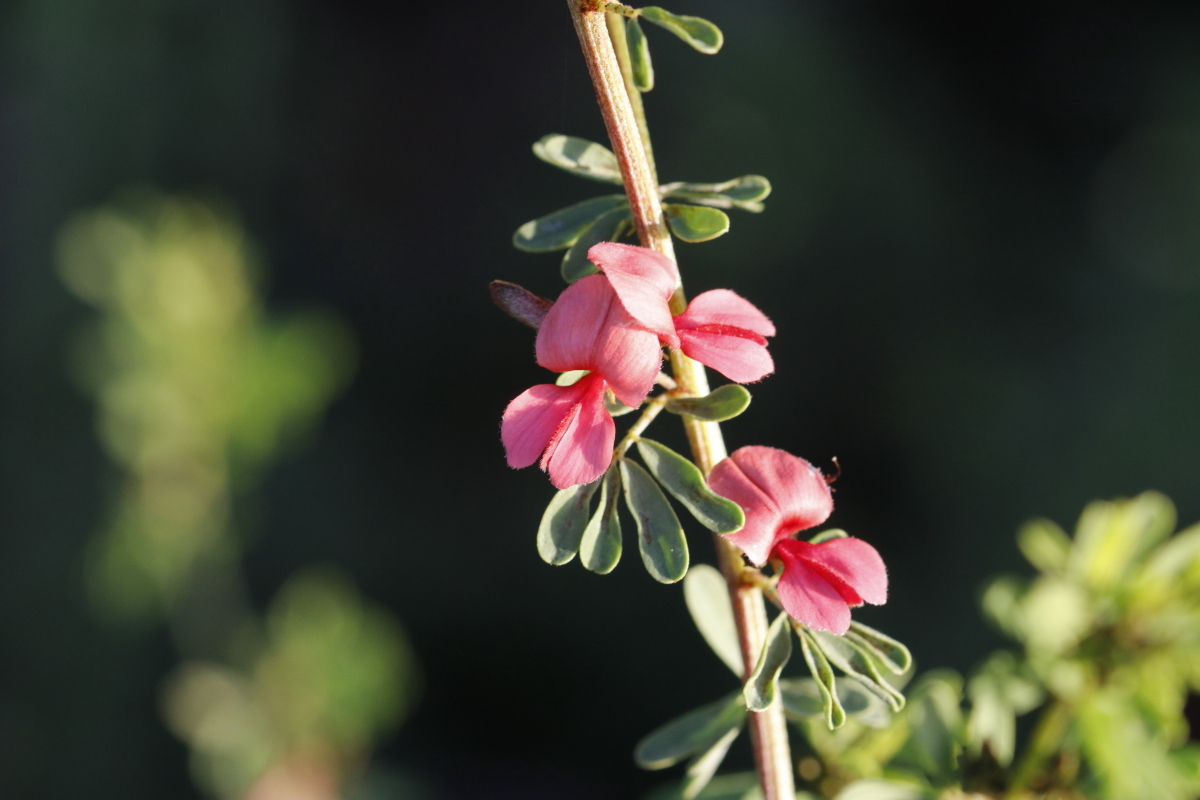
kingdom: Plantae
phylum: Tracheophyta
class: Magnoliopsida
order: Fabales
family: Fabaceae
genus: Indigofera
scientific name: Indigofera stricta
